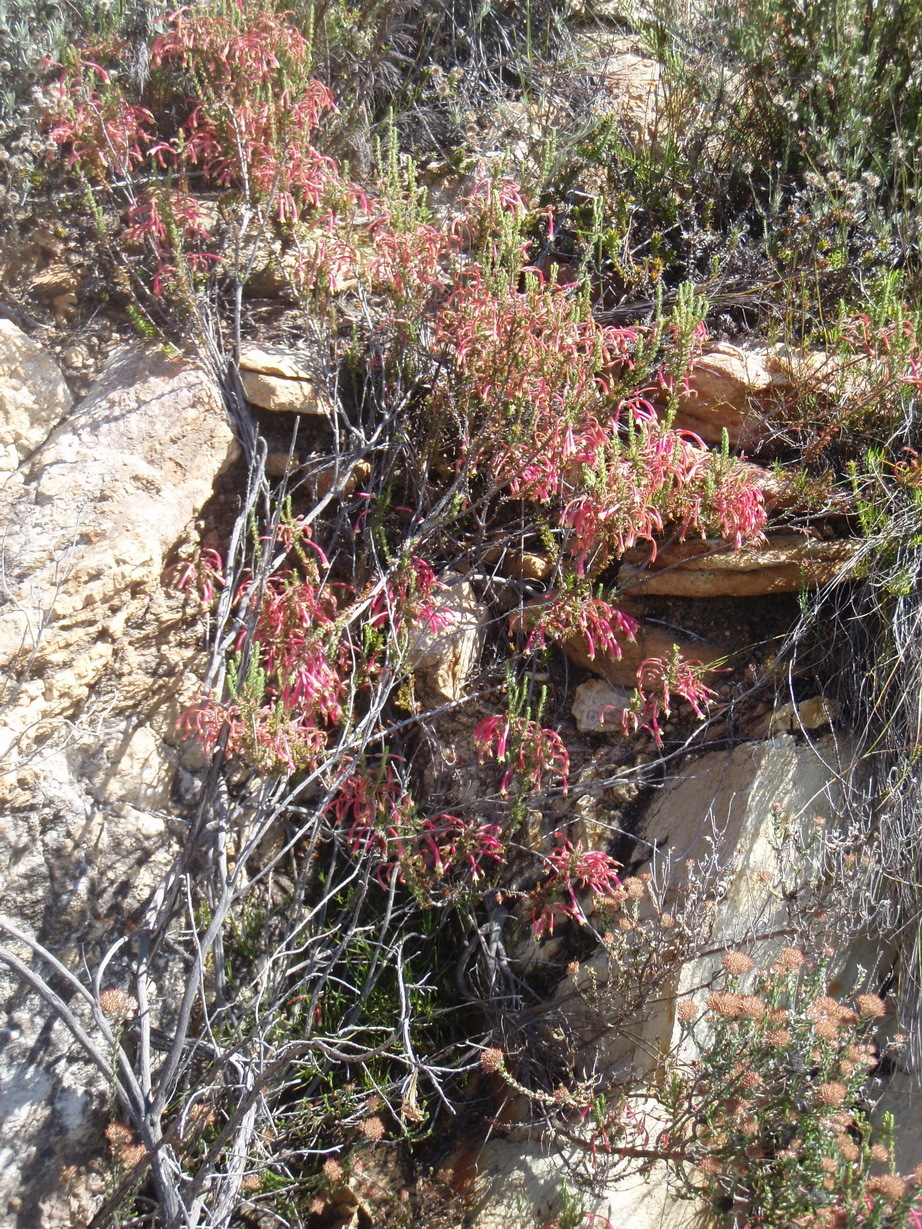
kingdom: Plantae
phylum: Tracheophyta
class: Magnoliopsida
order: Ericales
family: Ericaceae
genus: Erica
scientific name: Erica densifolia
